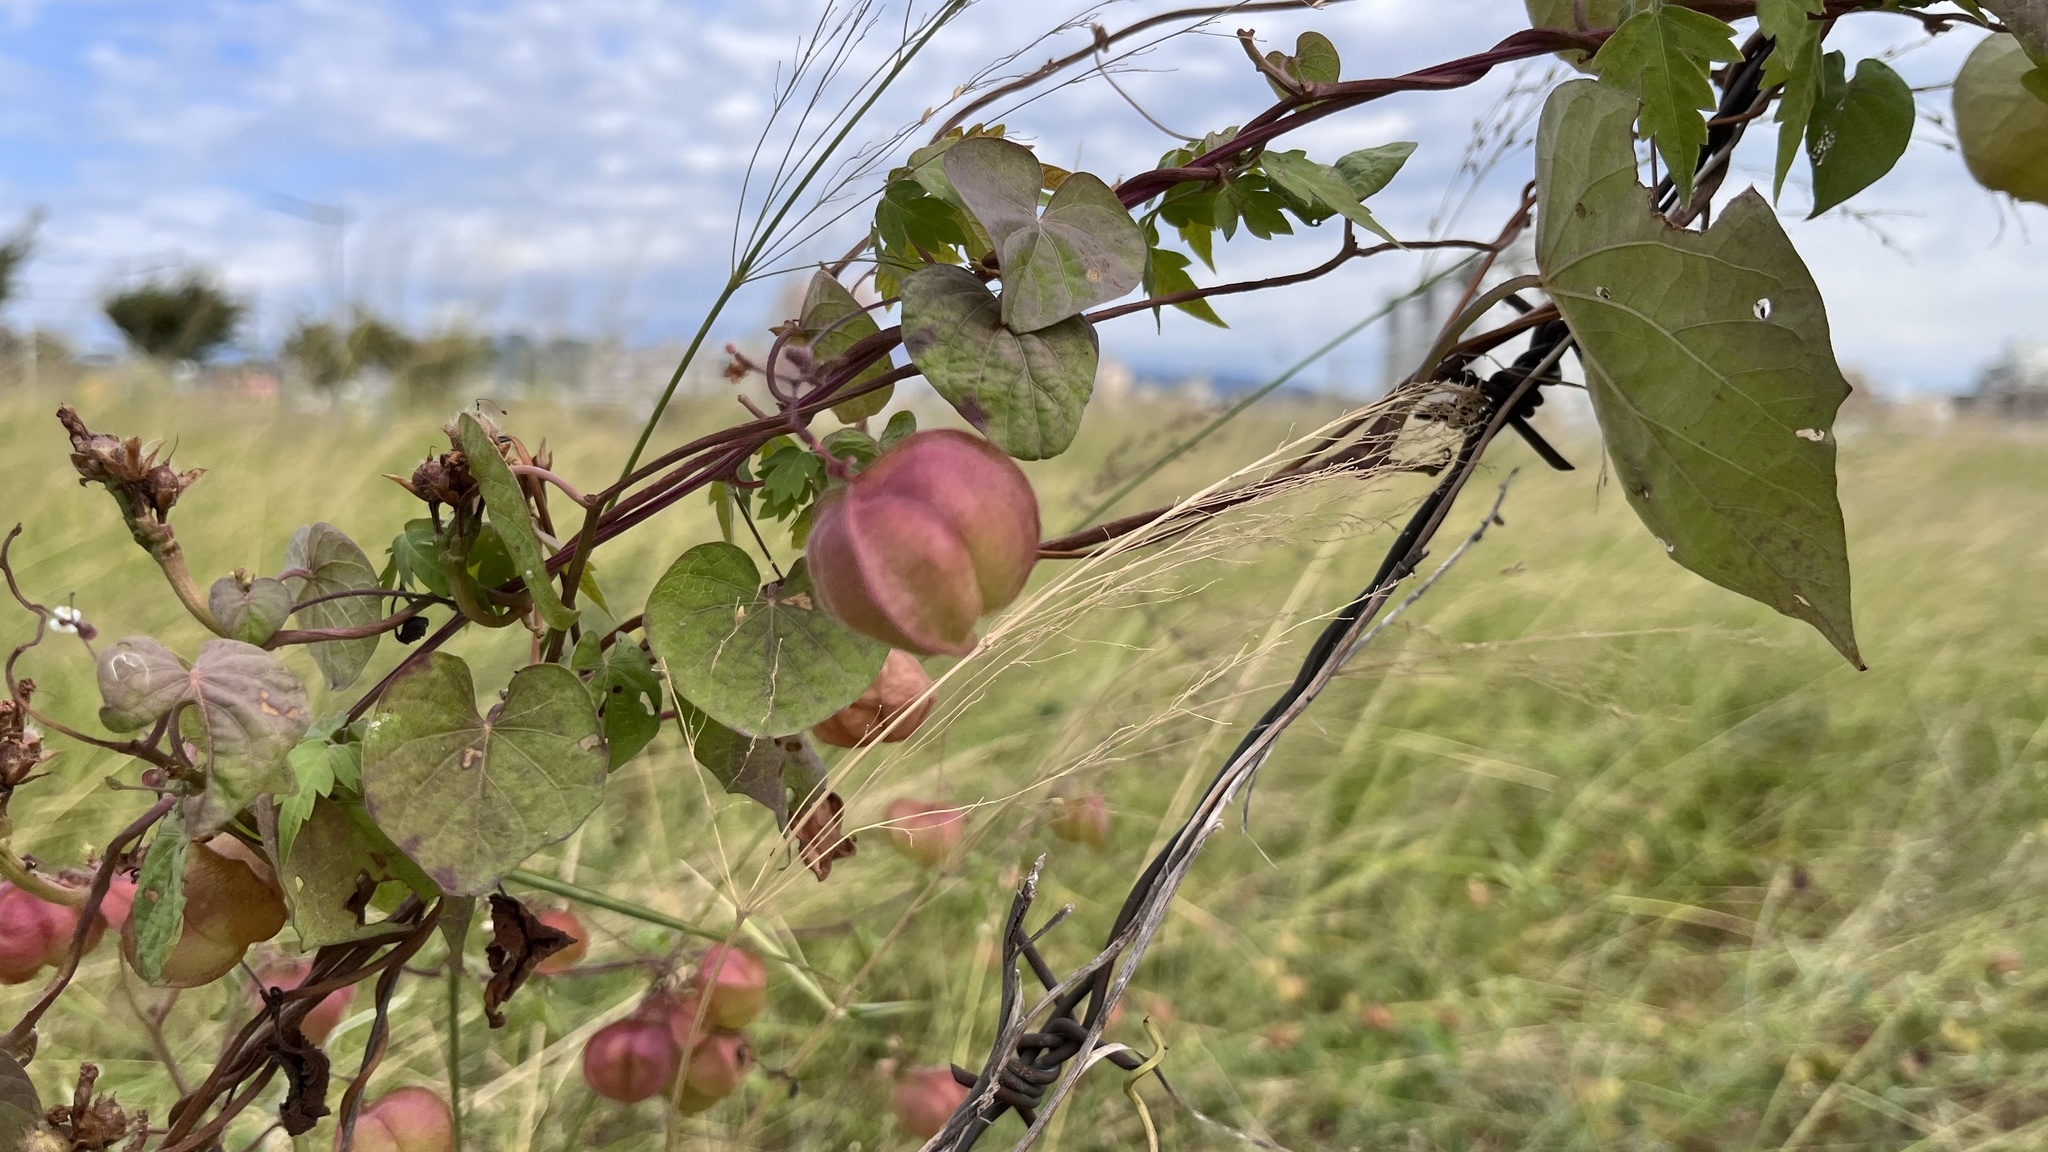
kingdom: Plantae
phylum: Tracheophyta
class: Magnoliopsida
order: Sapindales
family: Sapindaceae
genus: Cardiospermum
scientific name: Cardiospermum halicacabum
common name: Balloon vine
